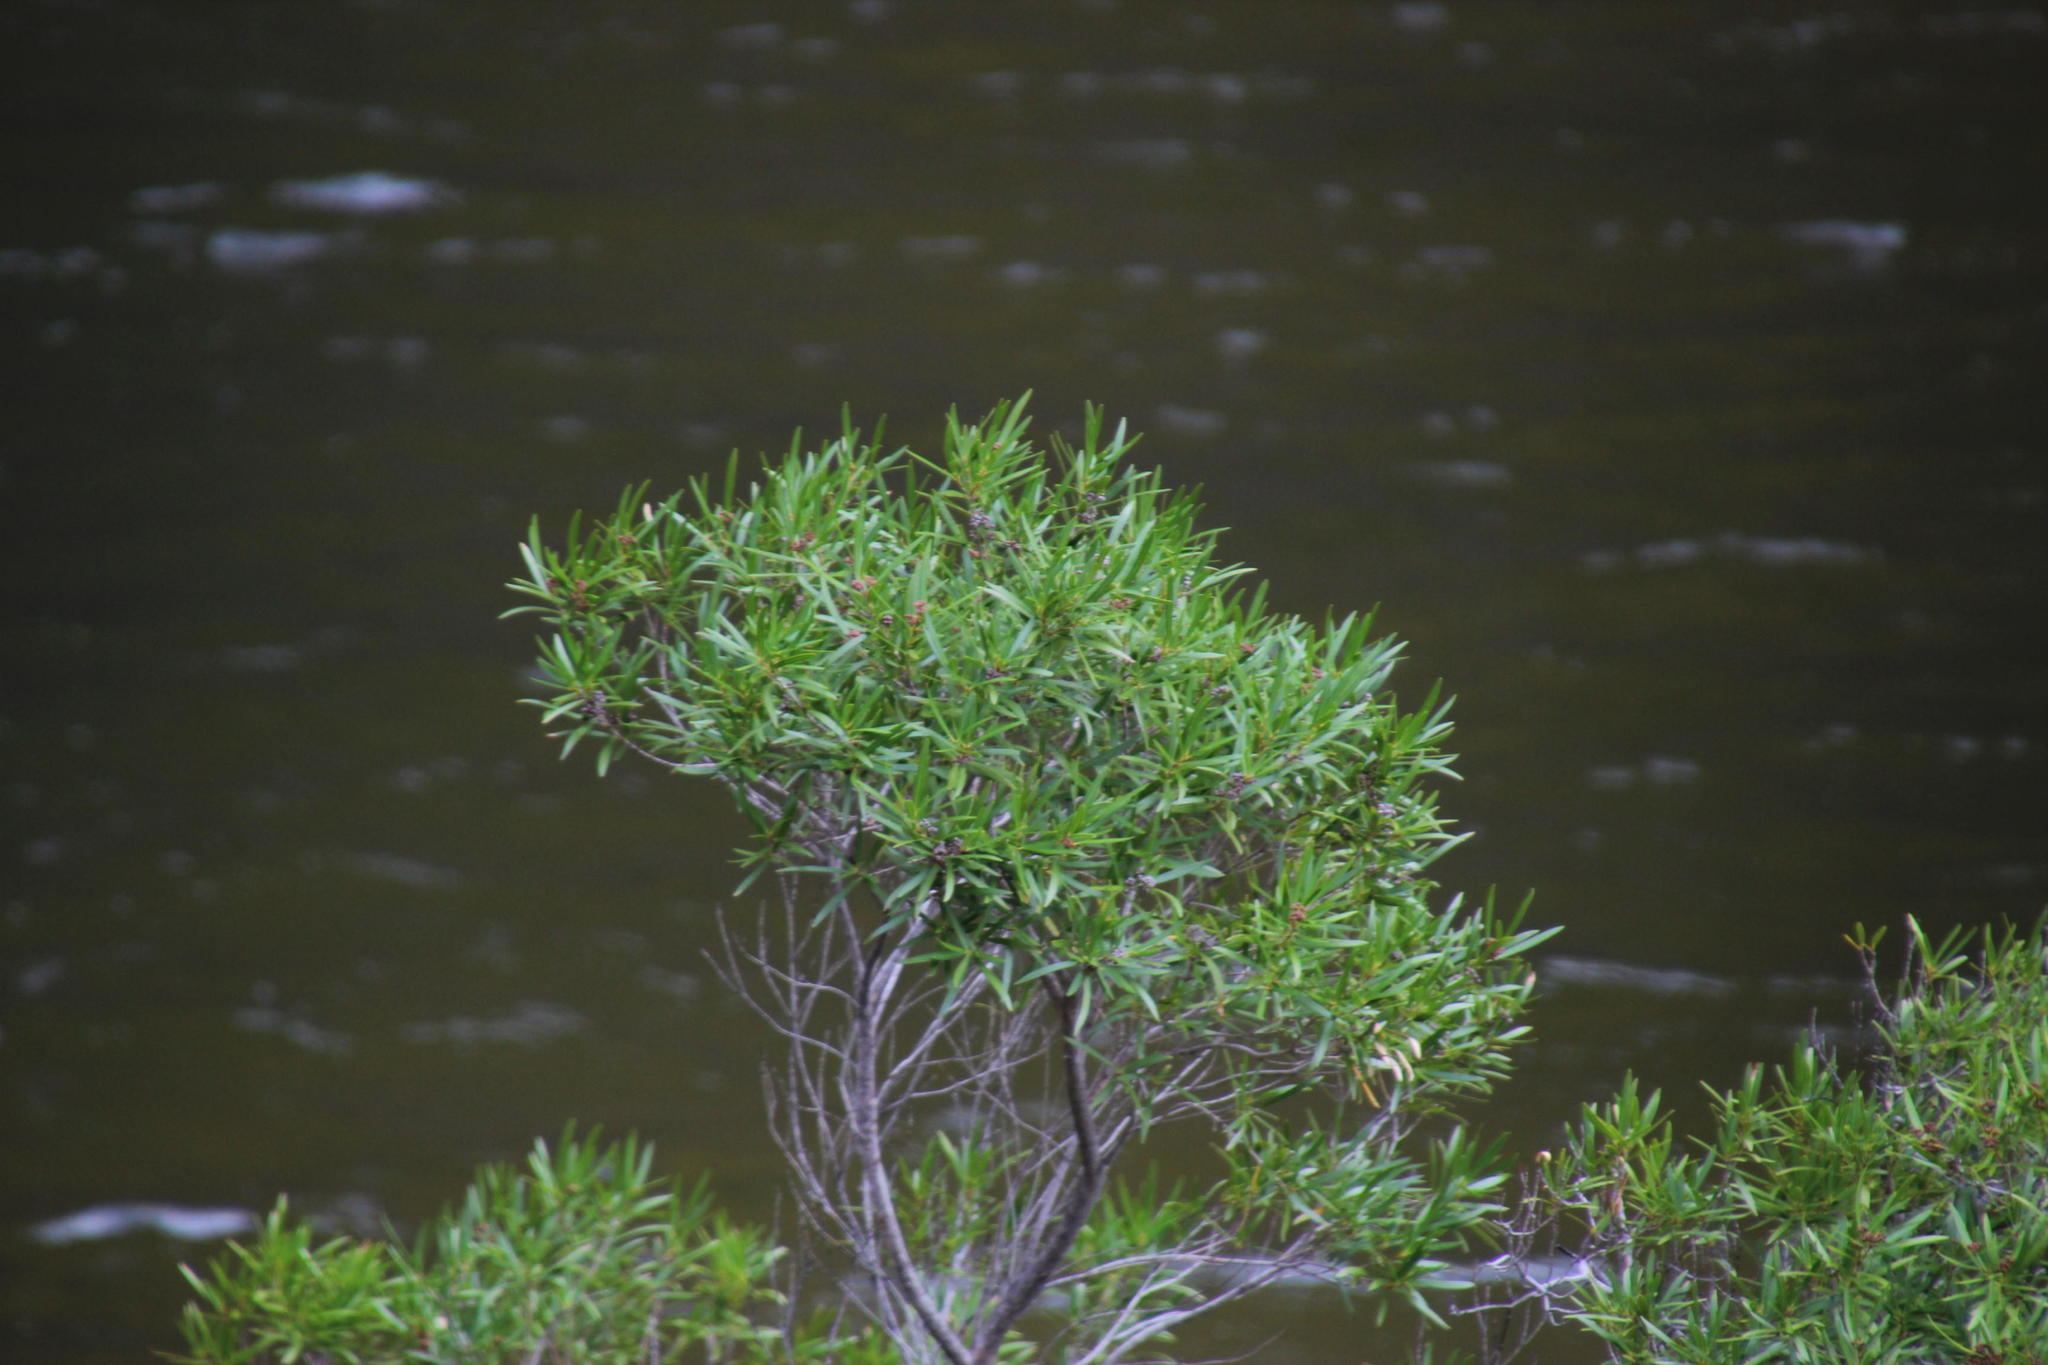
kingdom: Plantae
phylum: Tracheophyta
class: Magnoliopsida
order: Myrtales
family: Myrtaceae
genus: Callistemon
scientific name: Callistemon lanceolatus
